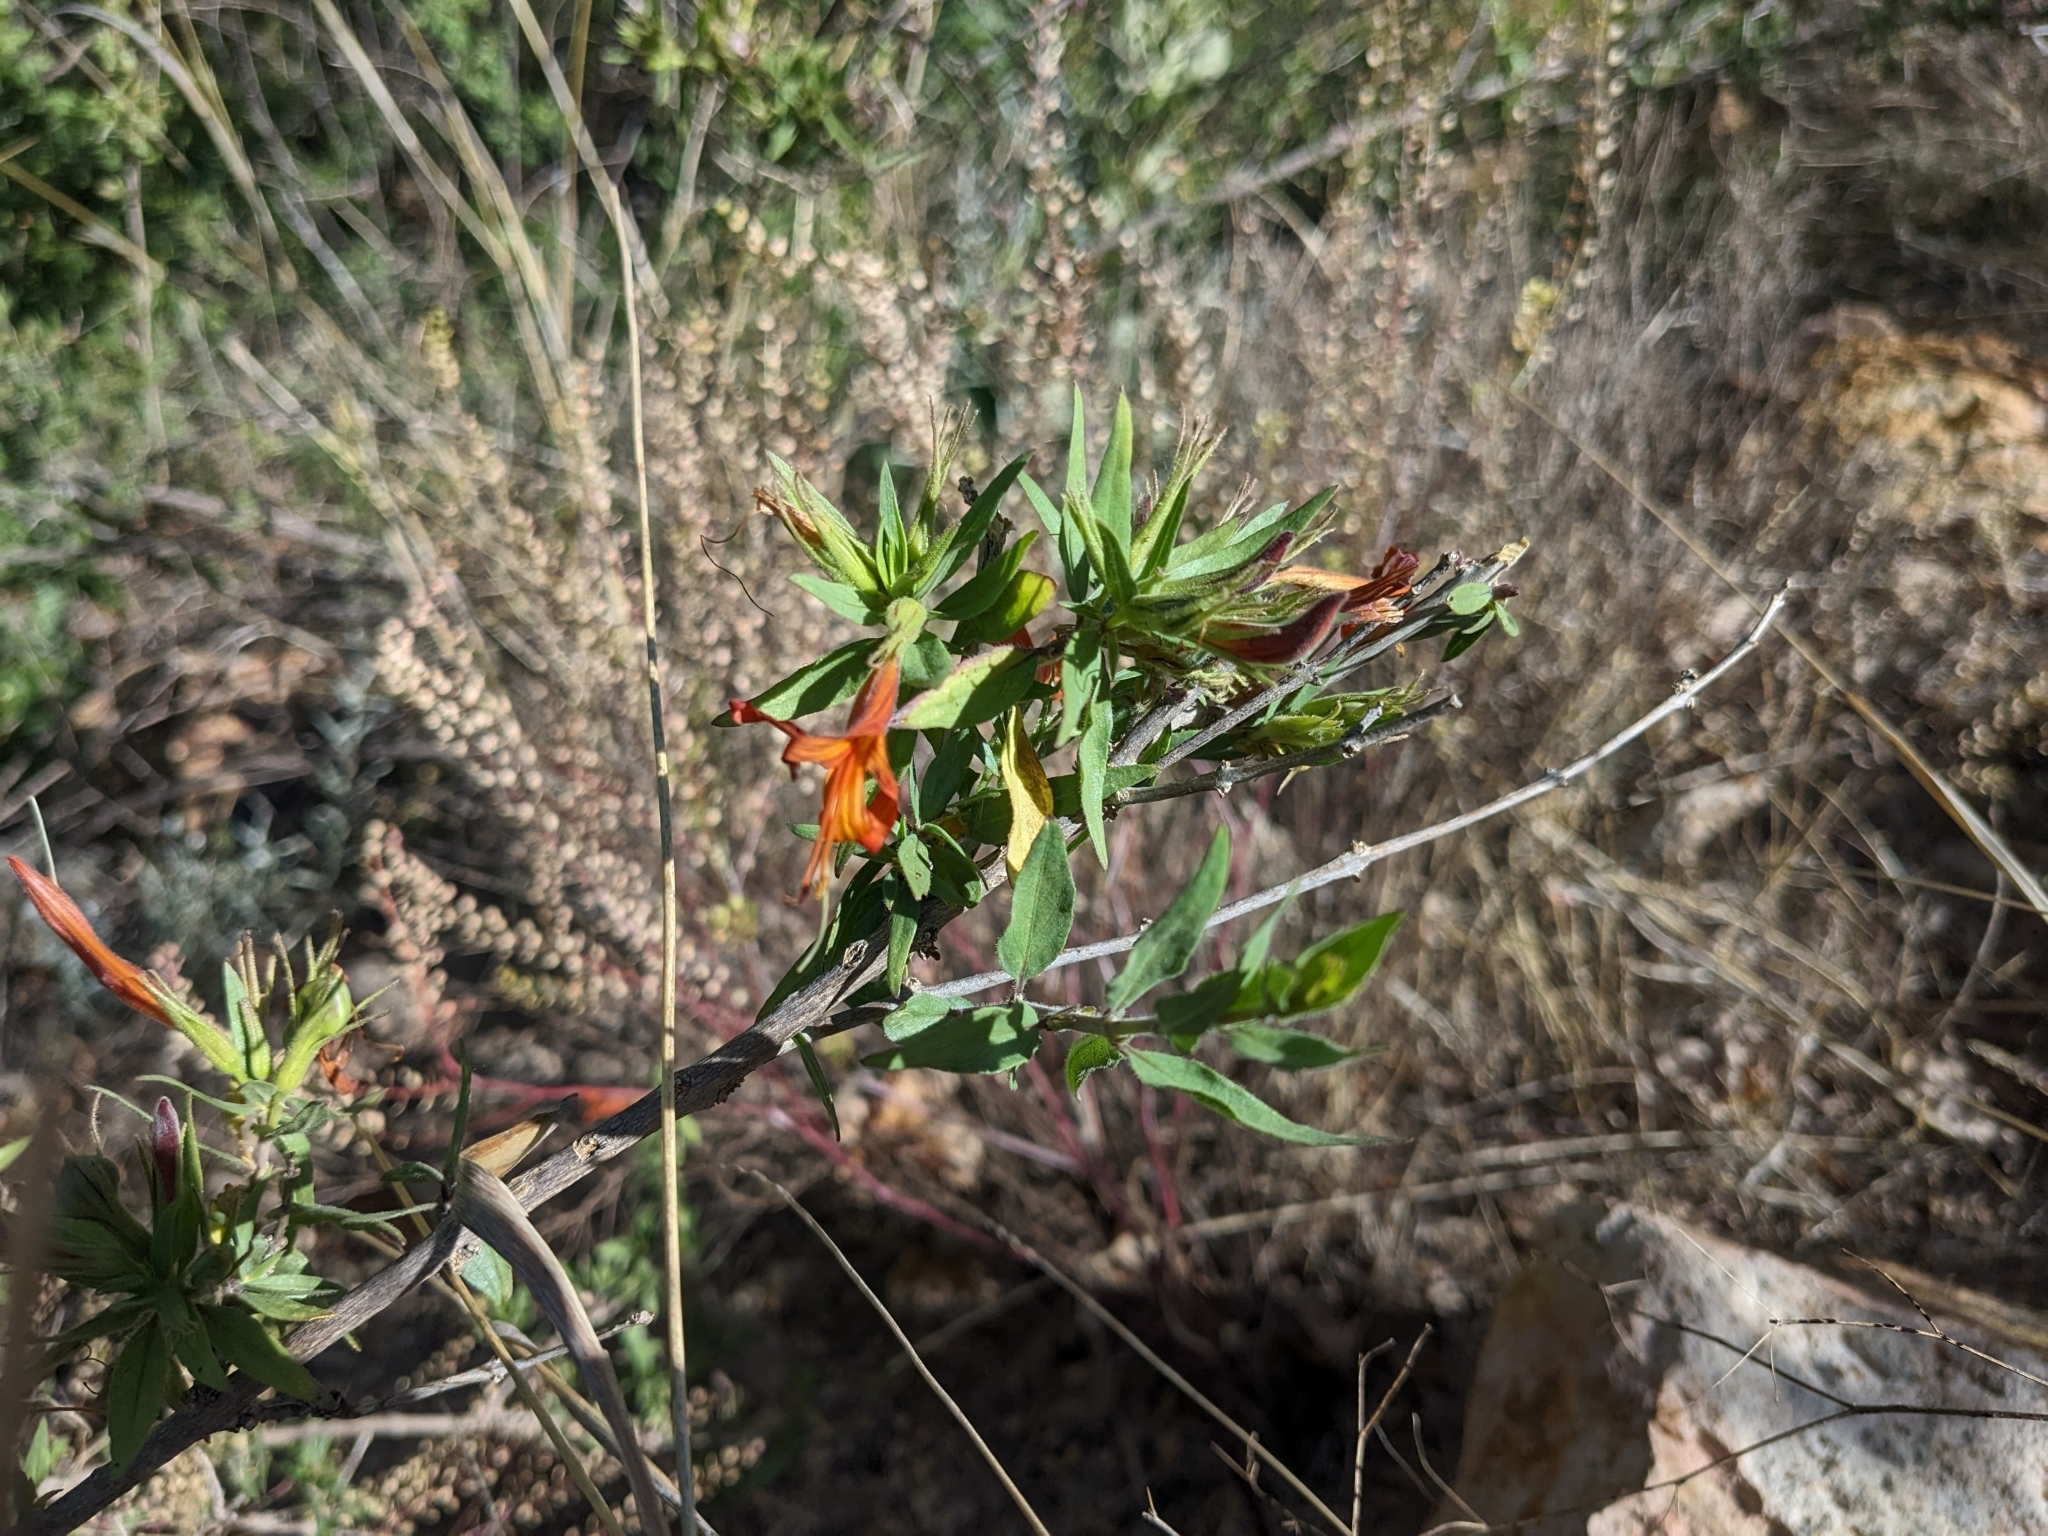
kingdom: Plantae
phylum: Tracheophyta
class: Magnoliopsida
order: Lamiales
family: Acanthaceae
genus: Anisacanthus
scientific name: Anisacanthus thurberi
